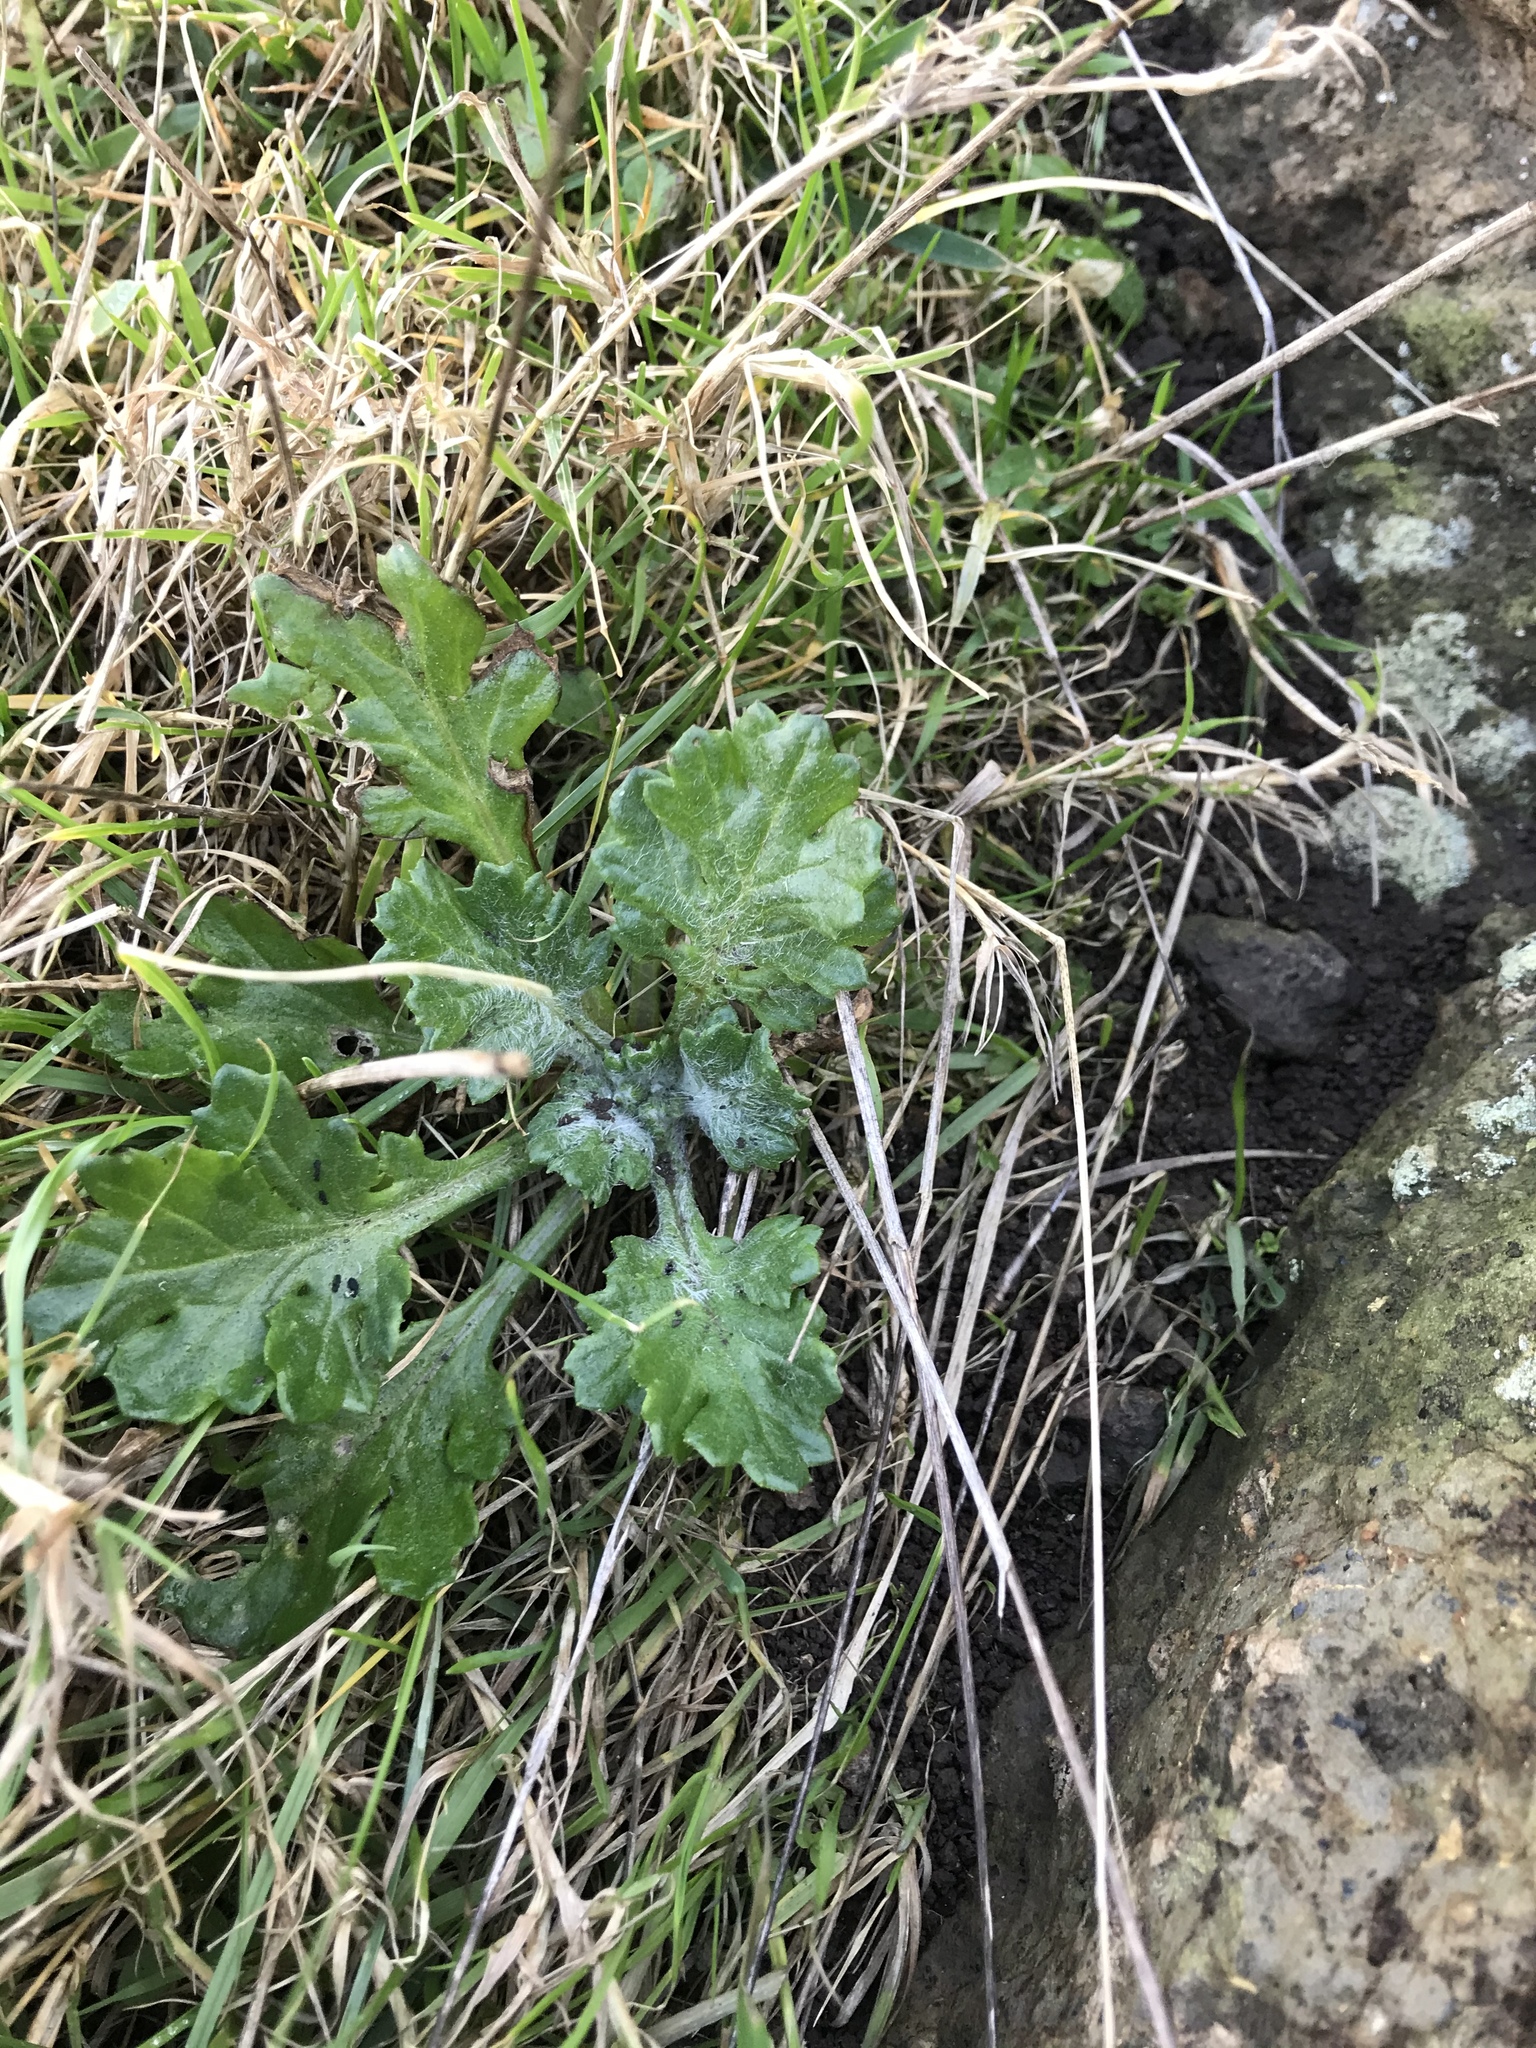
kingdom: Plantae
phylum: Tracheophyta
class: Magnoliopsida
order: Asterales
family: Asteraceae
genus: Senecio
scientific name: Senecio radiolatus
